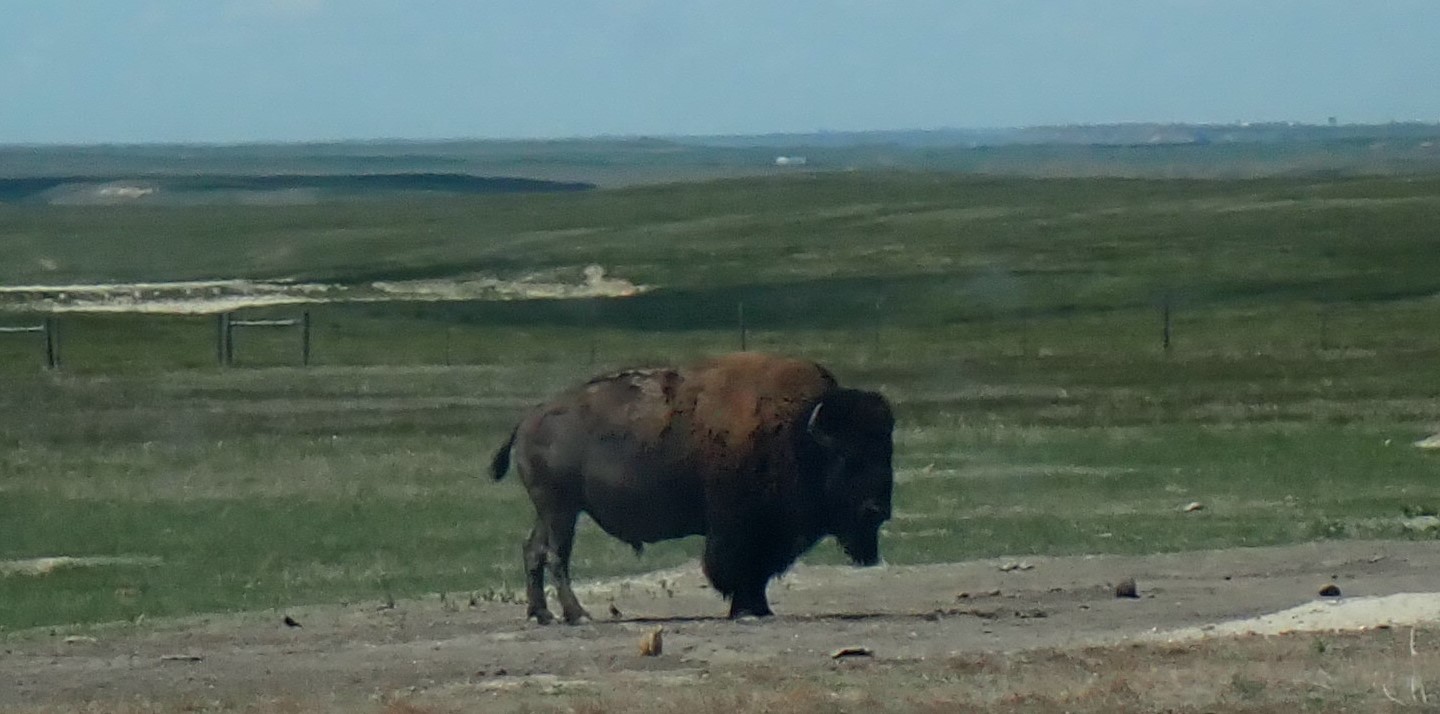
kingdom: Animalia
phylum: Chordata
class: Mammalia
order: Artiodactyla
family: Bovidae
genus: Bison
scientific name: Bison bison
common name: American bison
